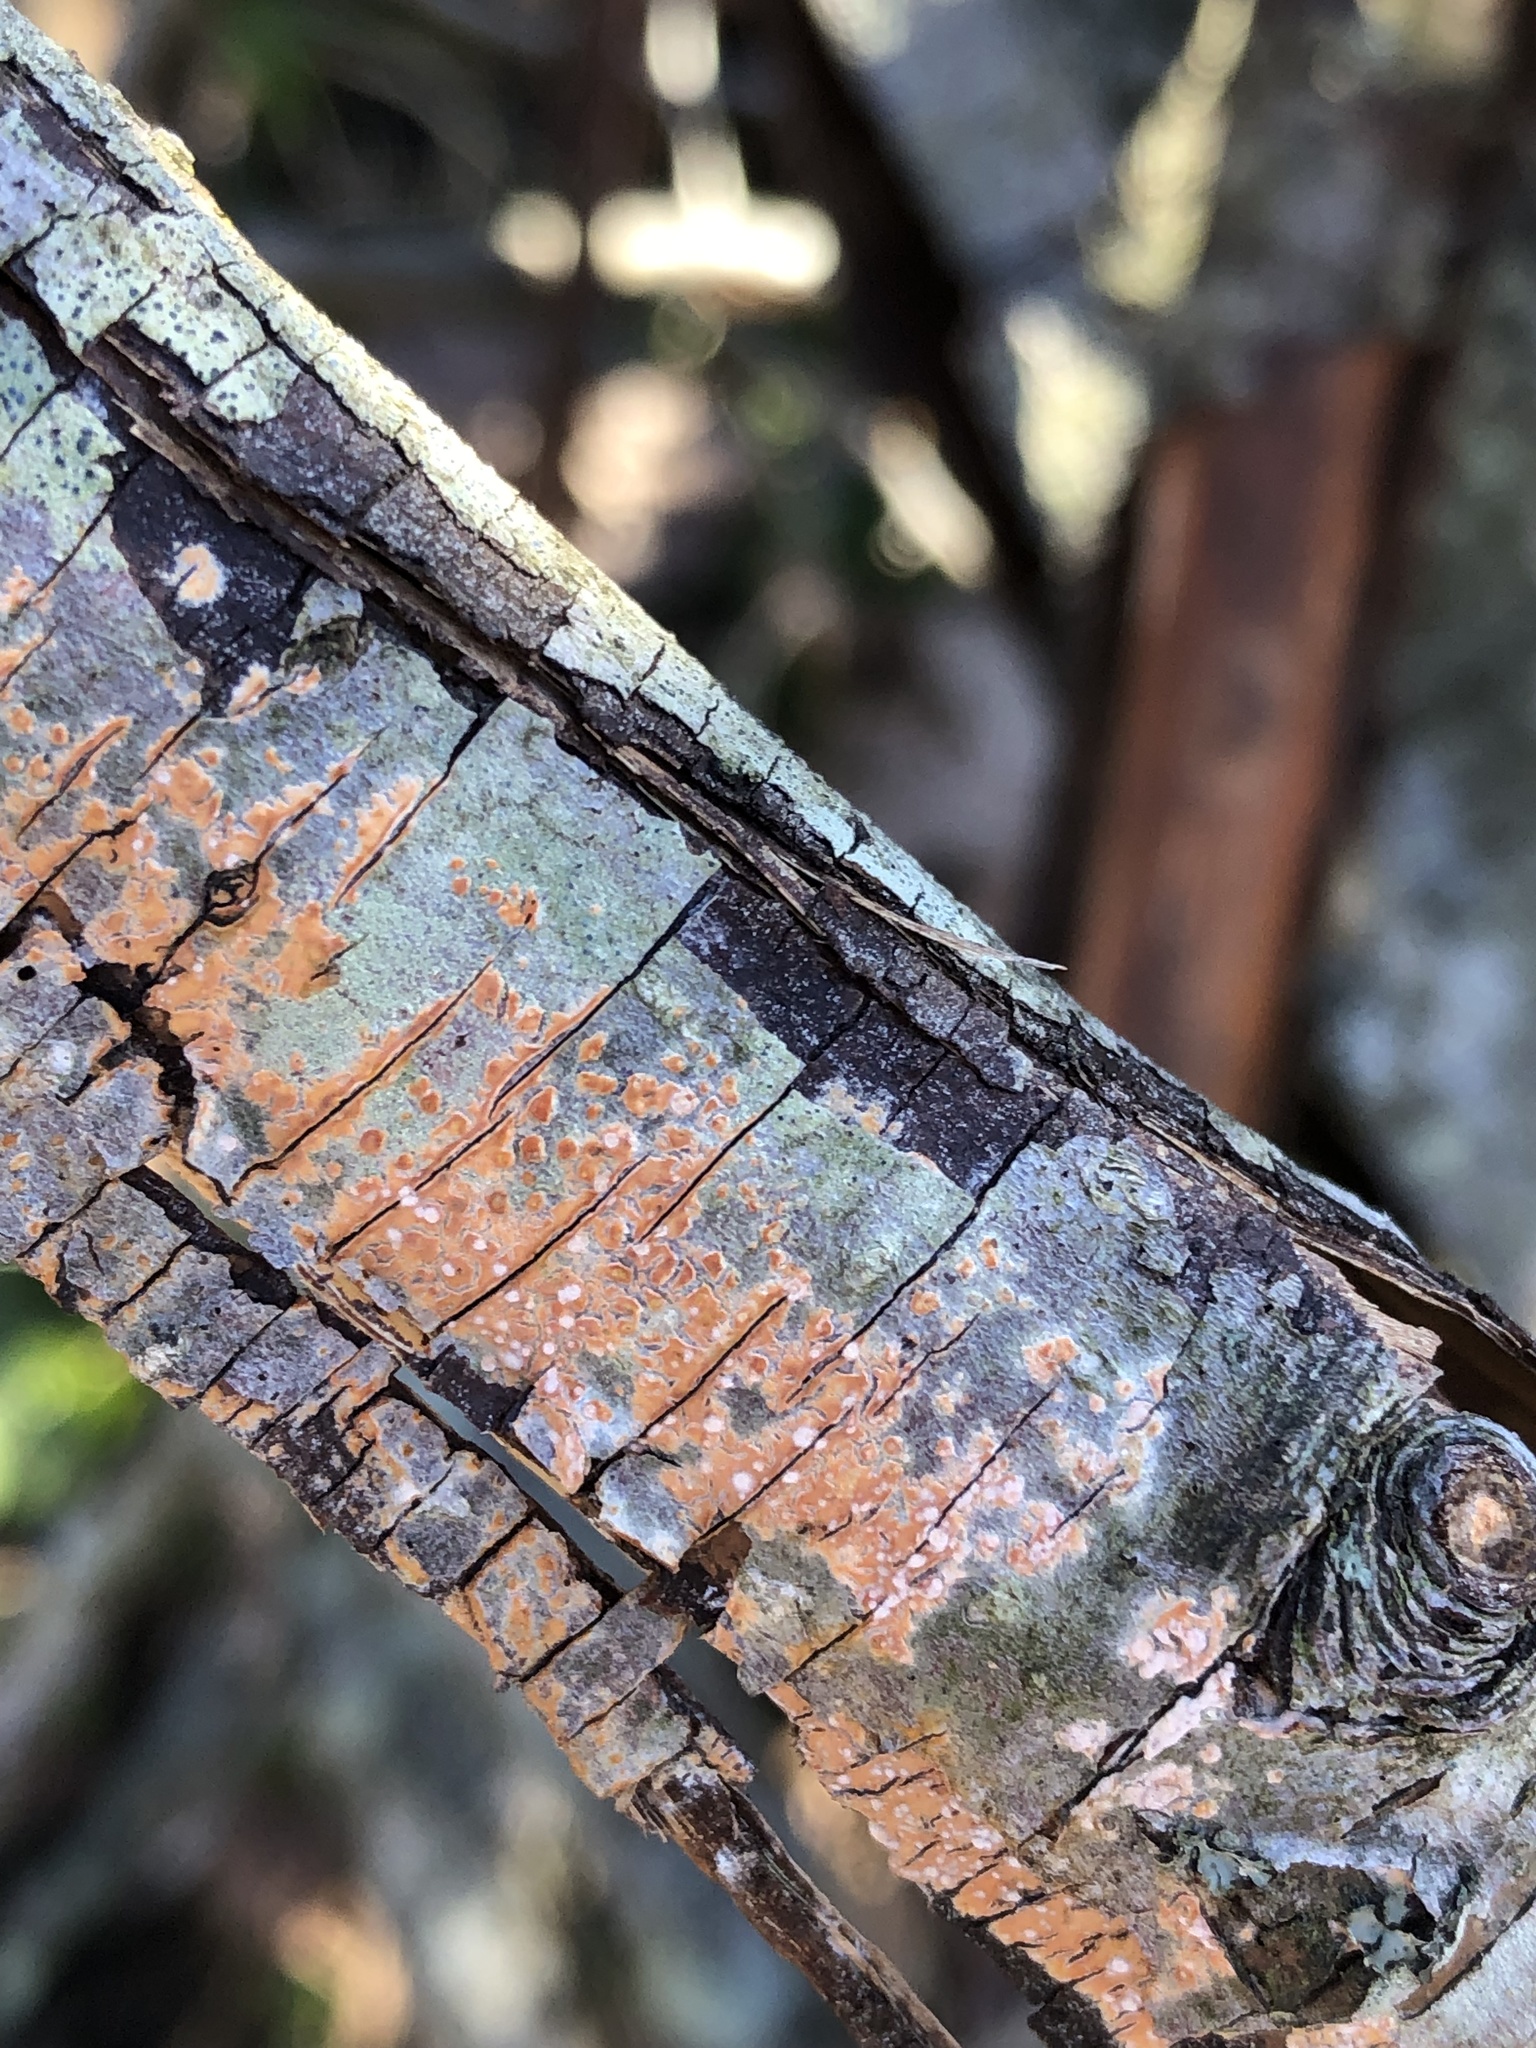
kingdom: Fungi
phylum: Basidiomycota
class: Agaricomycetes
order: Polyporales
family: Steccherinaceae
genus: Steccherinum
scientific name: Steccherinum ochraceum
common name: Ochre spreading tooth
